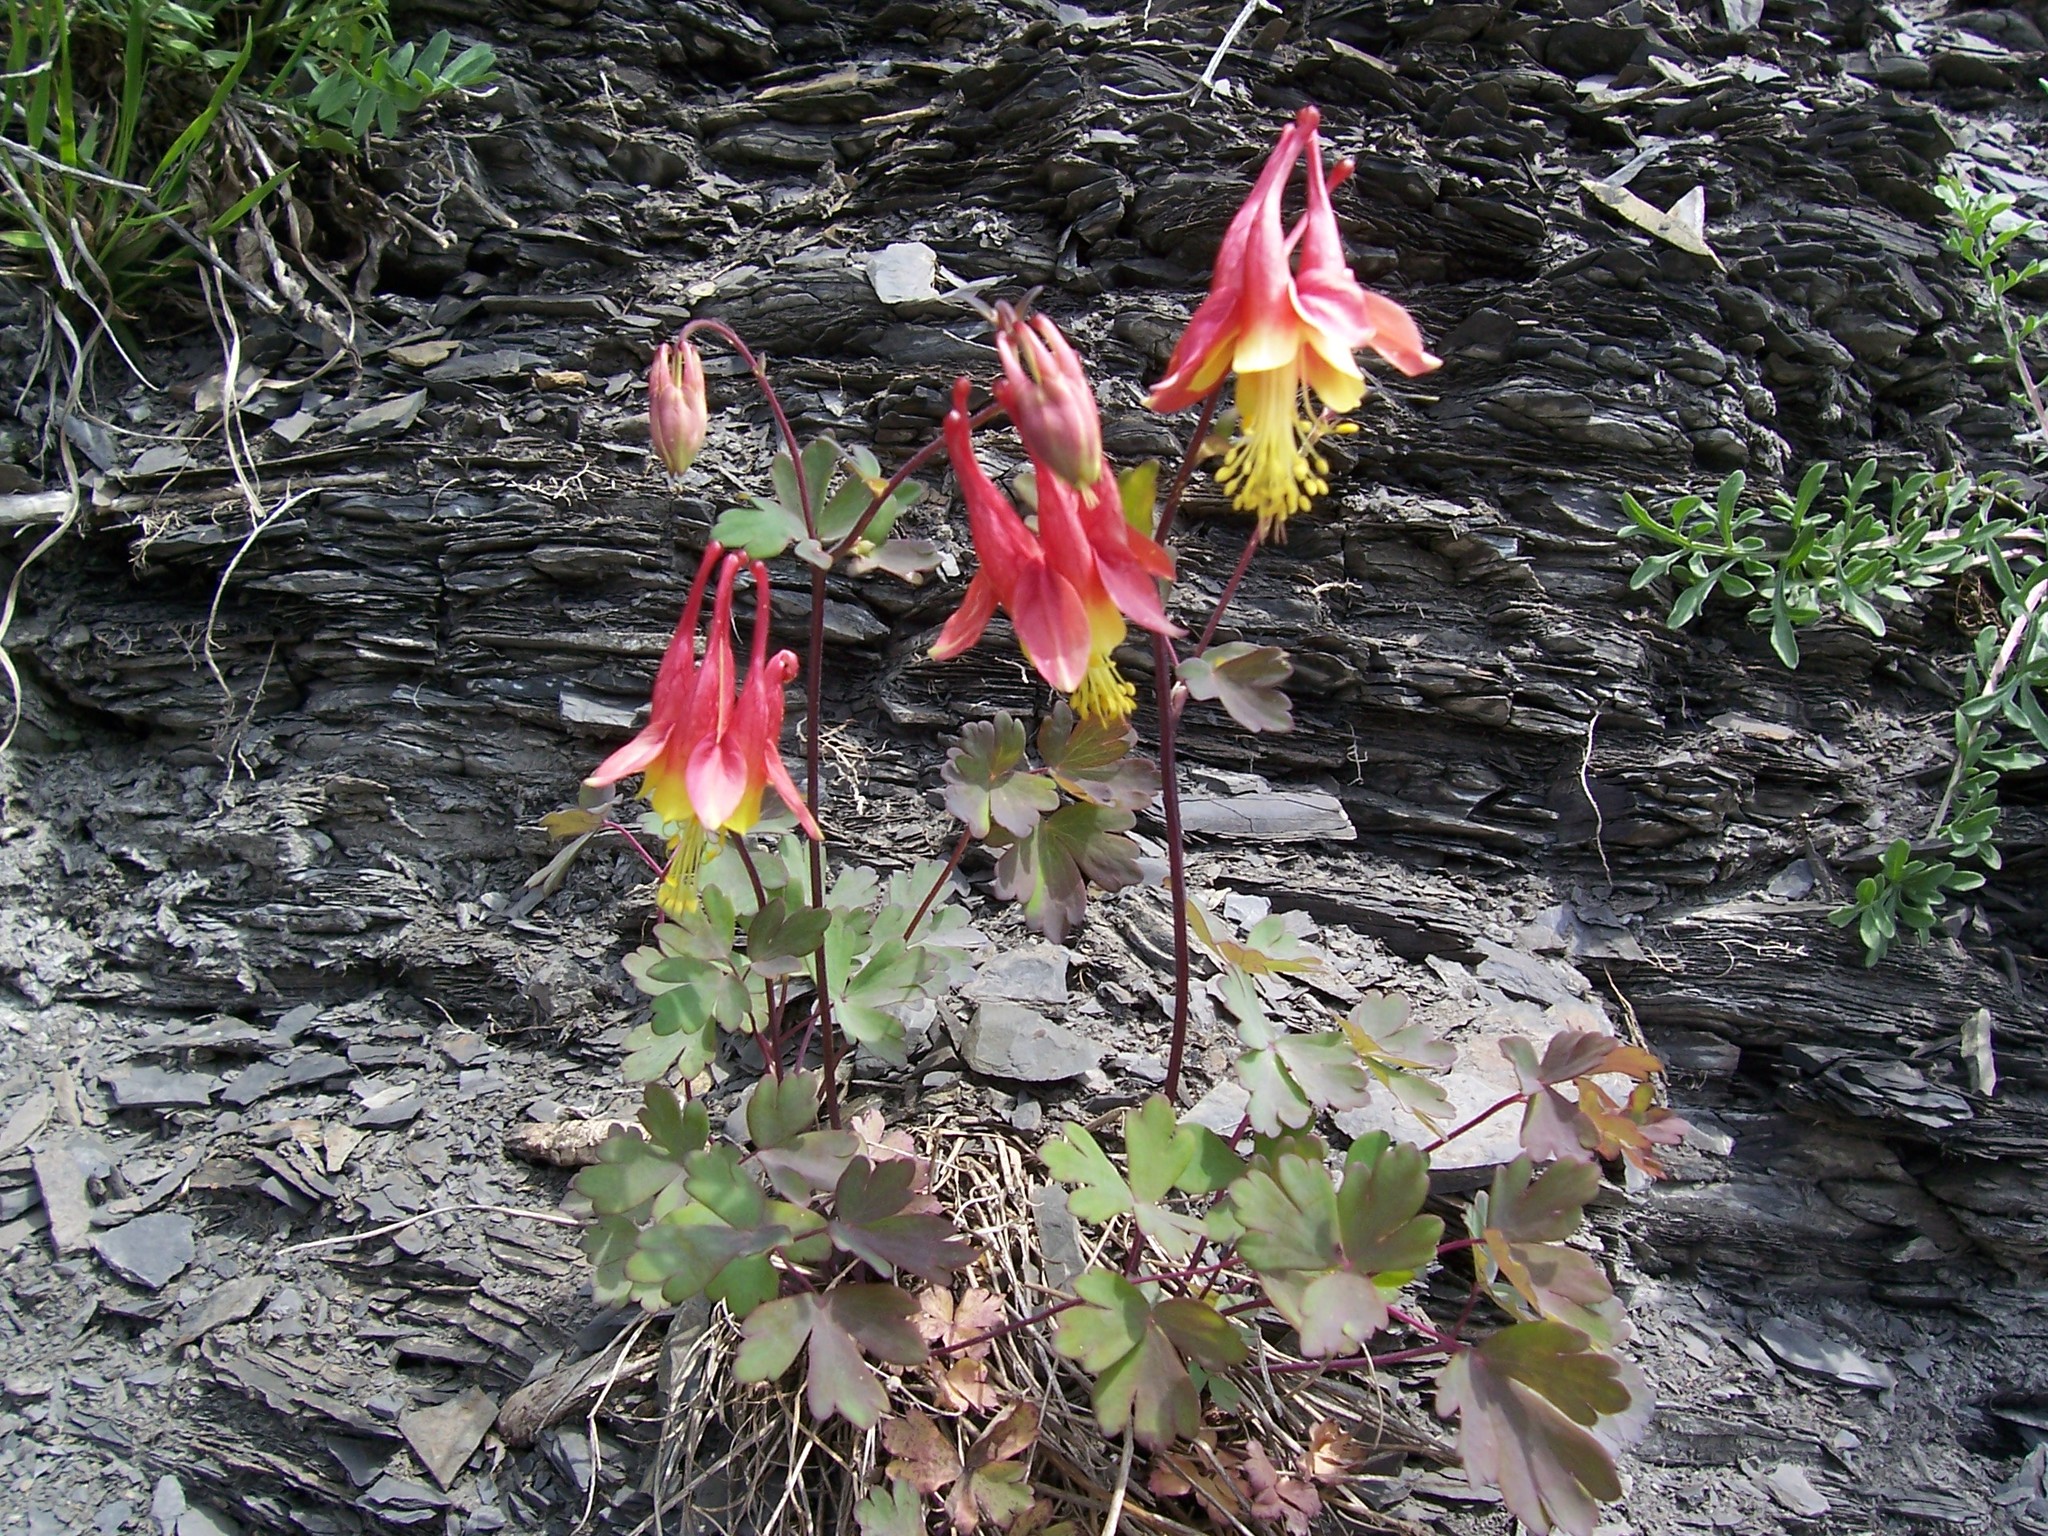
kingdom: Plantae
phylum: Tracheophyta
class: Magnoliopsida
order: Ranunculales
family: Ranunculaceae
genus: Aquilegia
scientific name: Aquilegia canadensis
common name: American columbine
